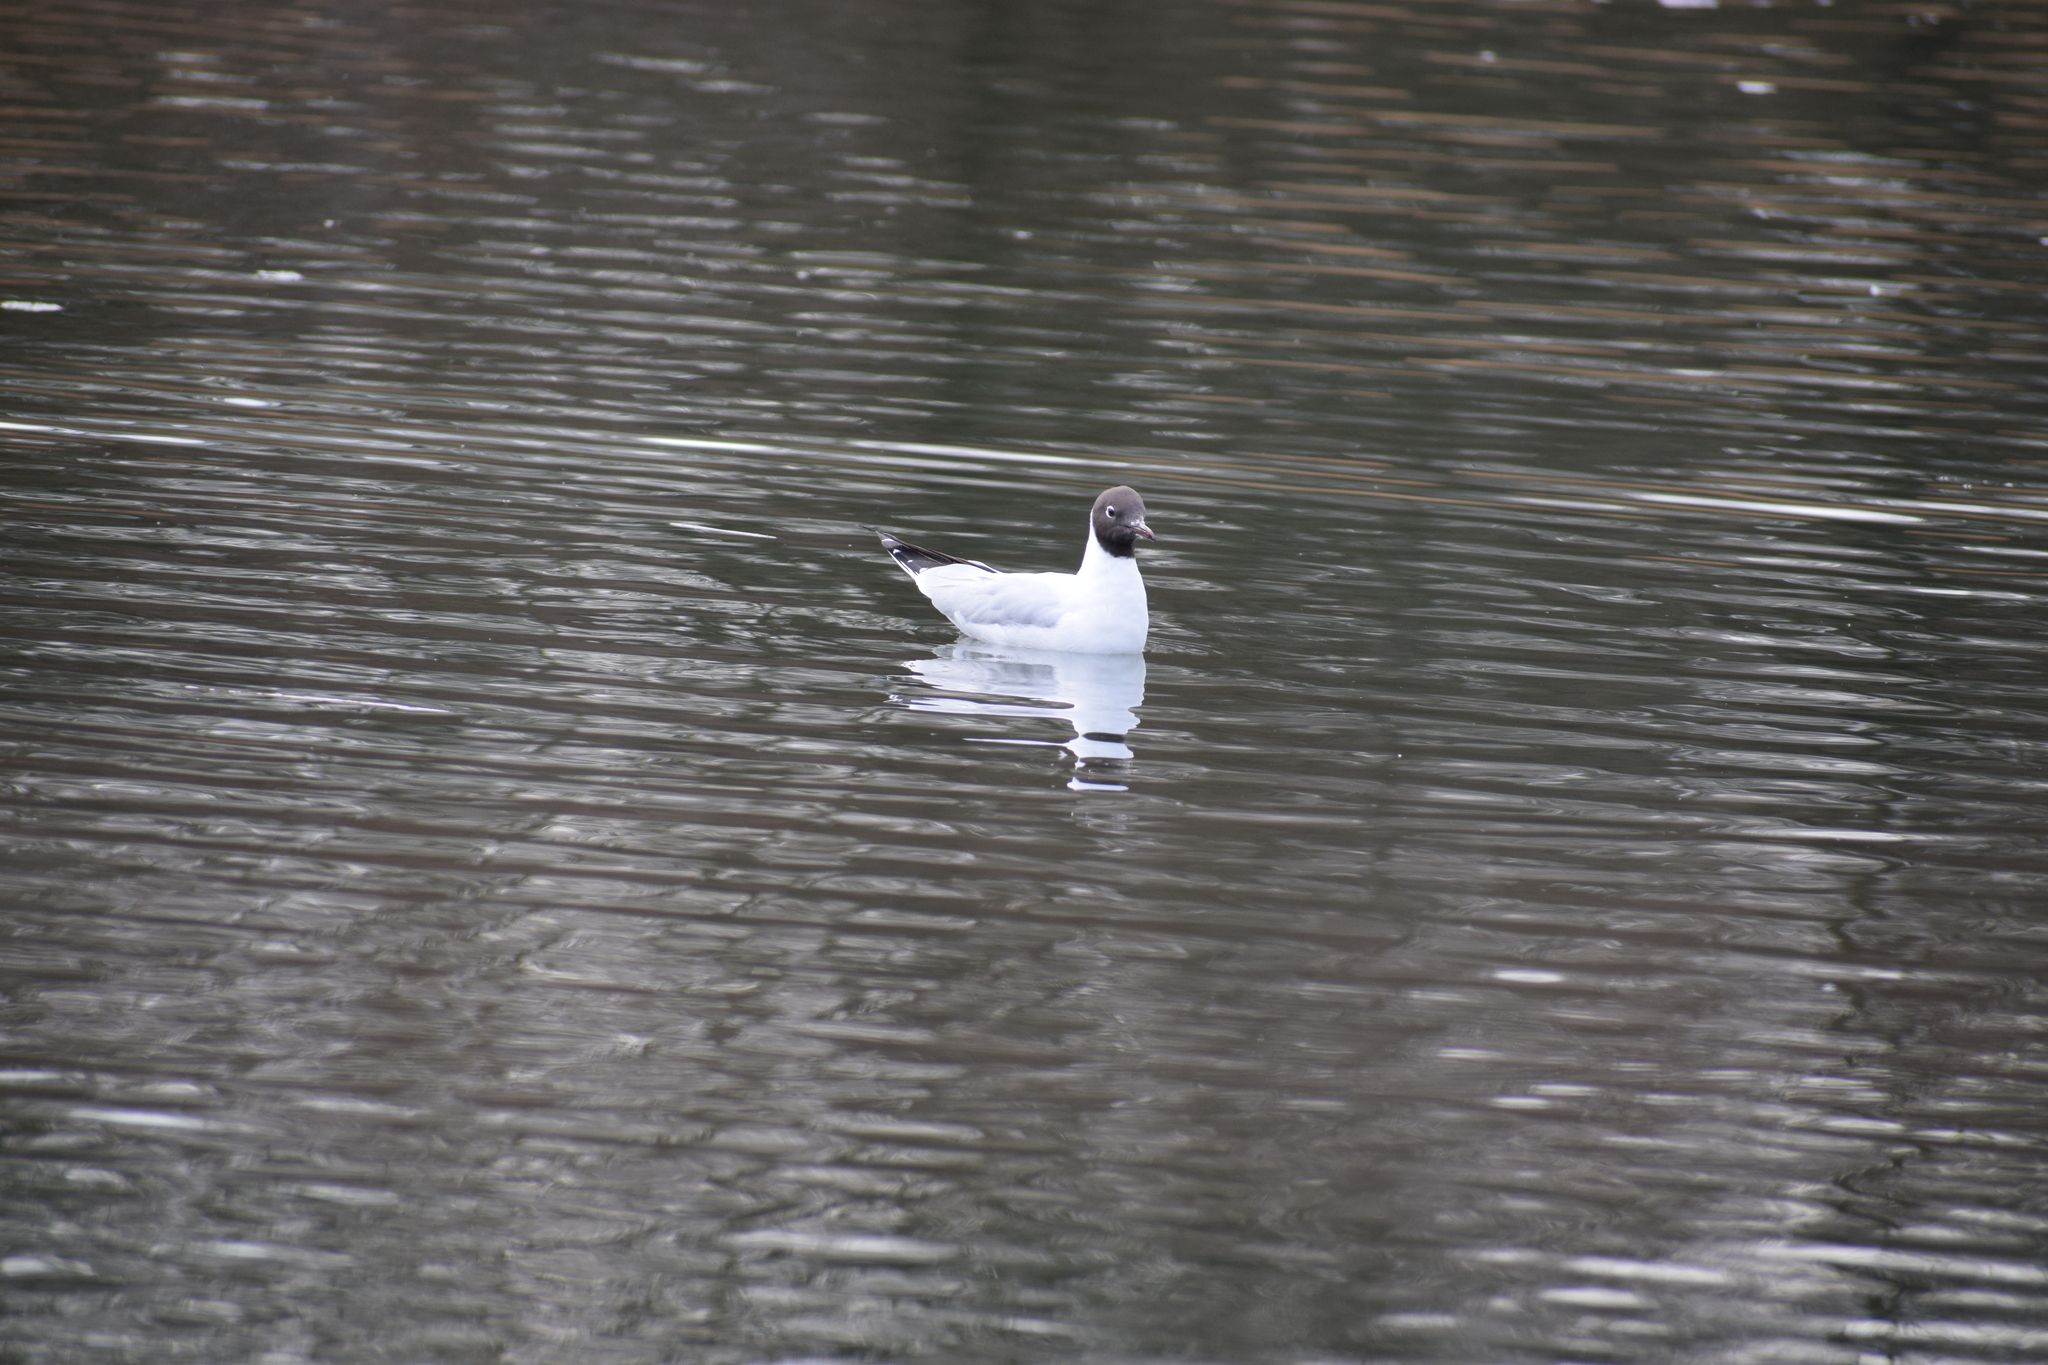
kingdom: Animalia
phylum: Chordata
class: Aves
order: Charadriiformes
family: Laridae
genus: Chroicocephalus
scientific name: Chroicocephalus ridibundus
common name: Black-headed gull
